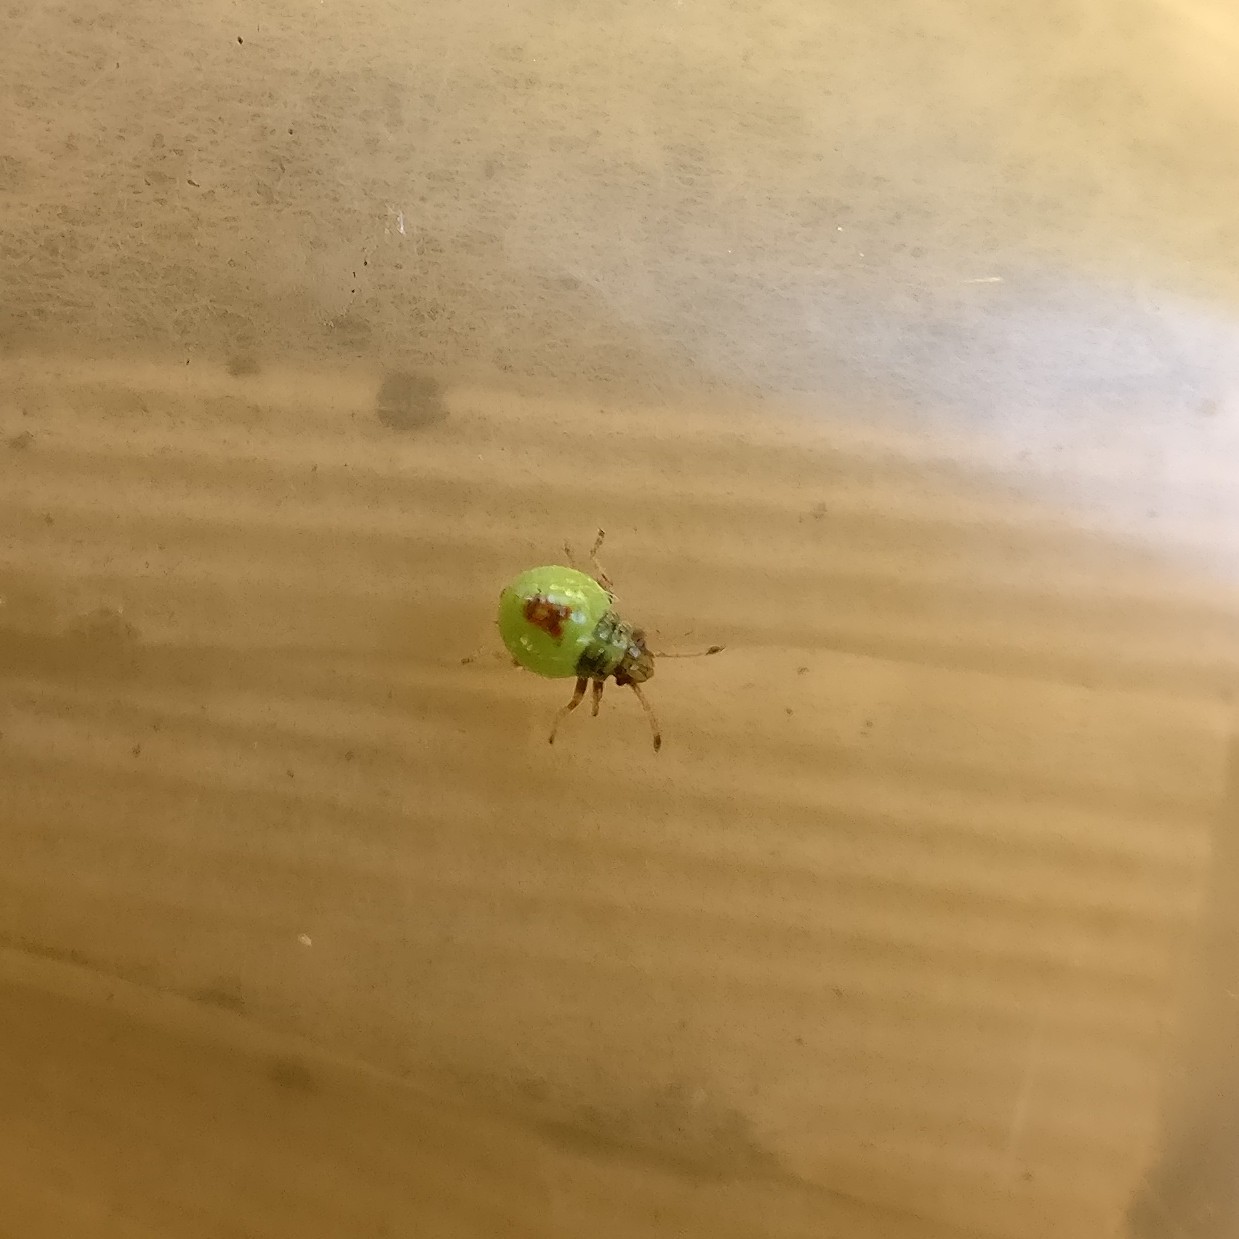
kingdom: Animalia
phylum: Arthropoda
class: Insecta
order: Hemiptera
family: Acanthosomatidae
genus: Elasmostethus
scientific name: Elasmostethus interstinctus
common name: Birch shieldbug
